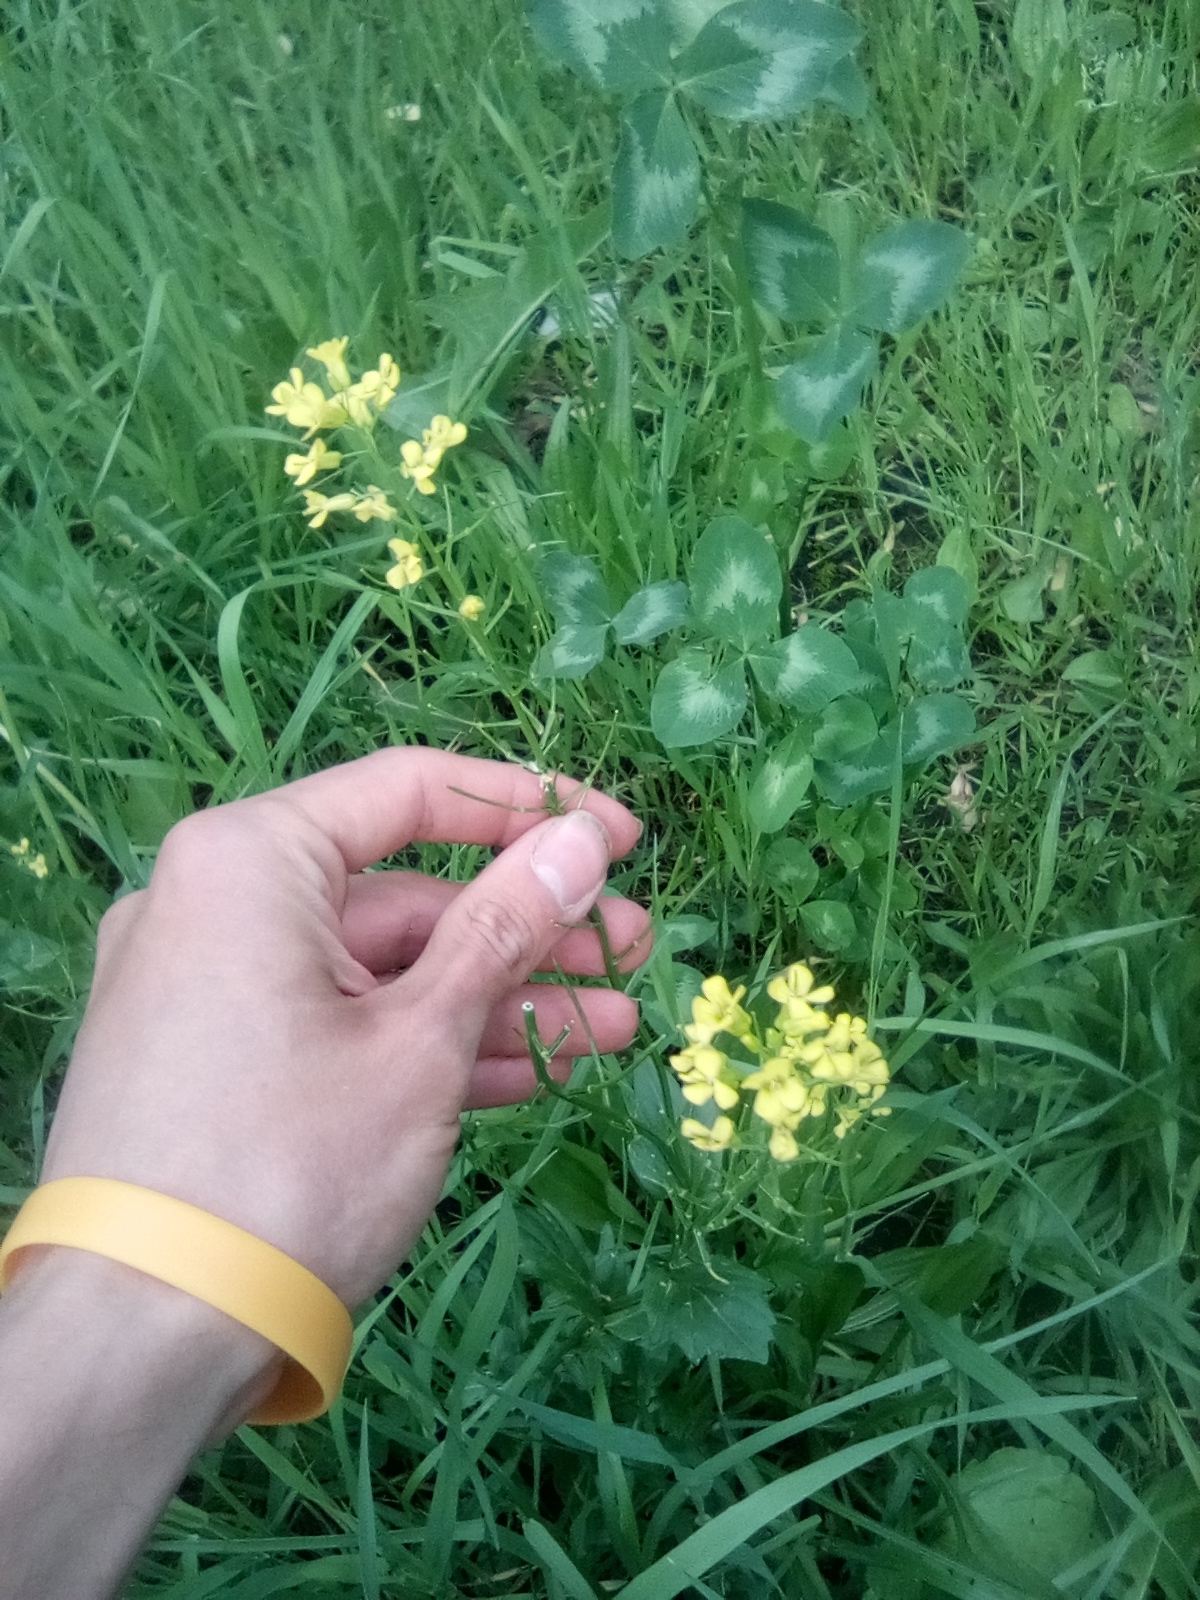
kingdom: Plantae
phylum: Tracheophyta
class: Magnoliopsida
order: Brassicales
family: Brassicaceae
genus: Barbarea
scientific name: Barbarea vulgaris
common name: Cressy-greens
